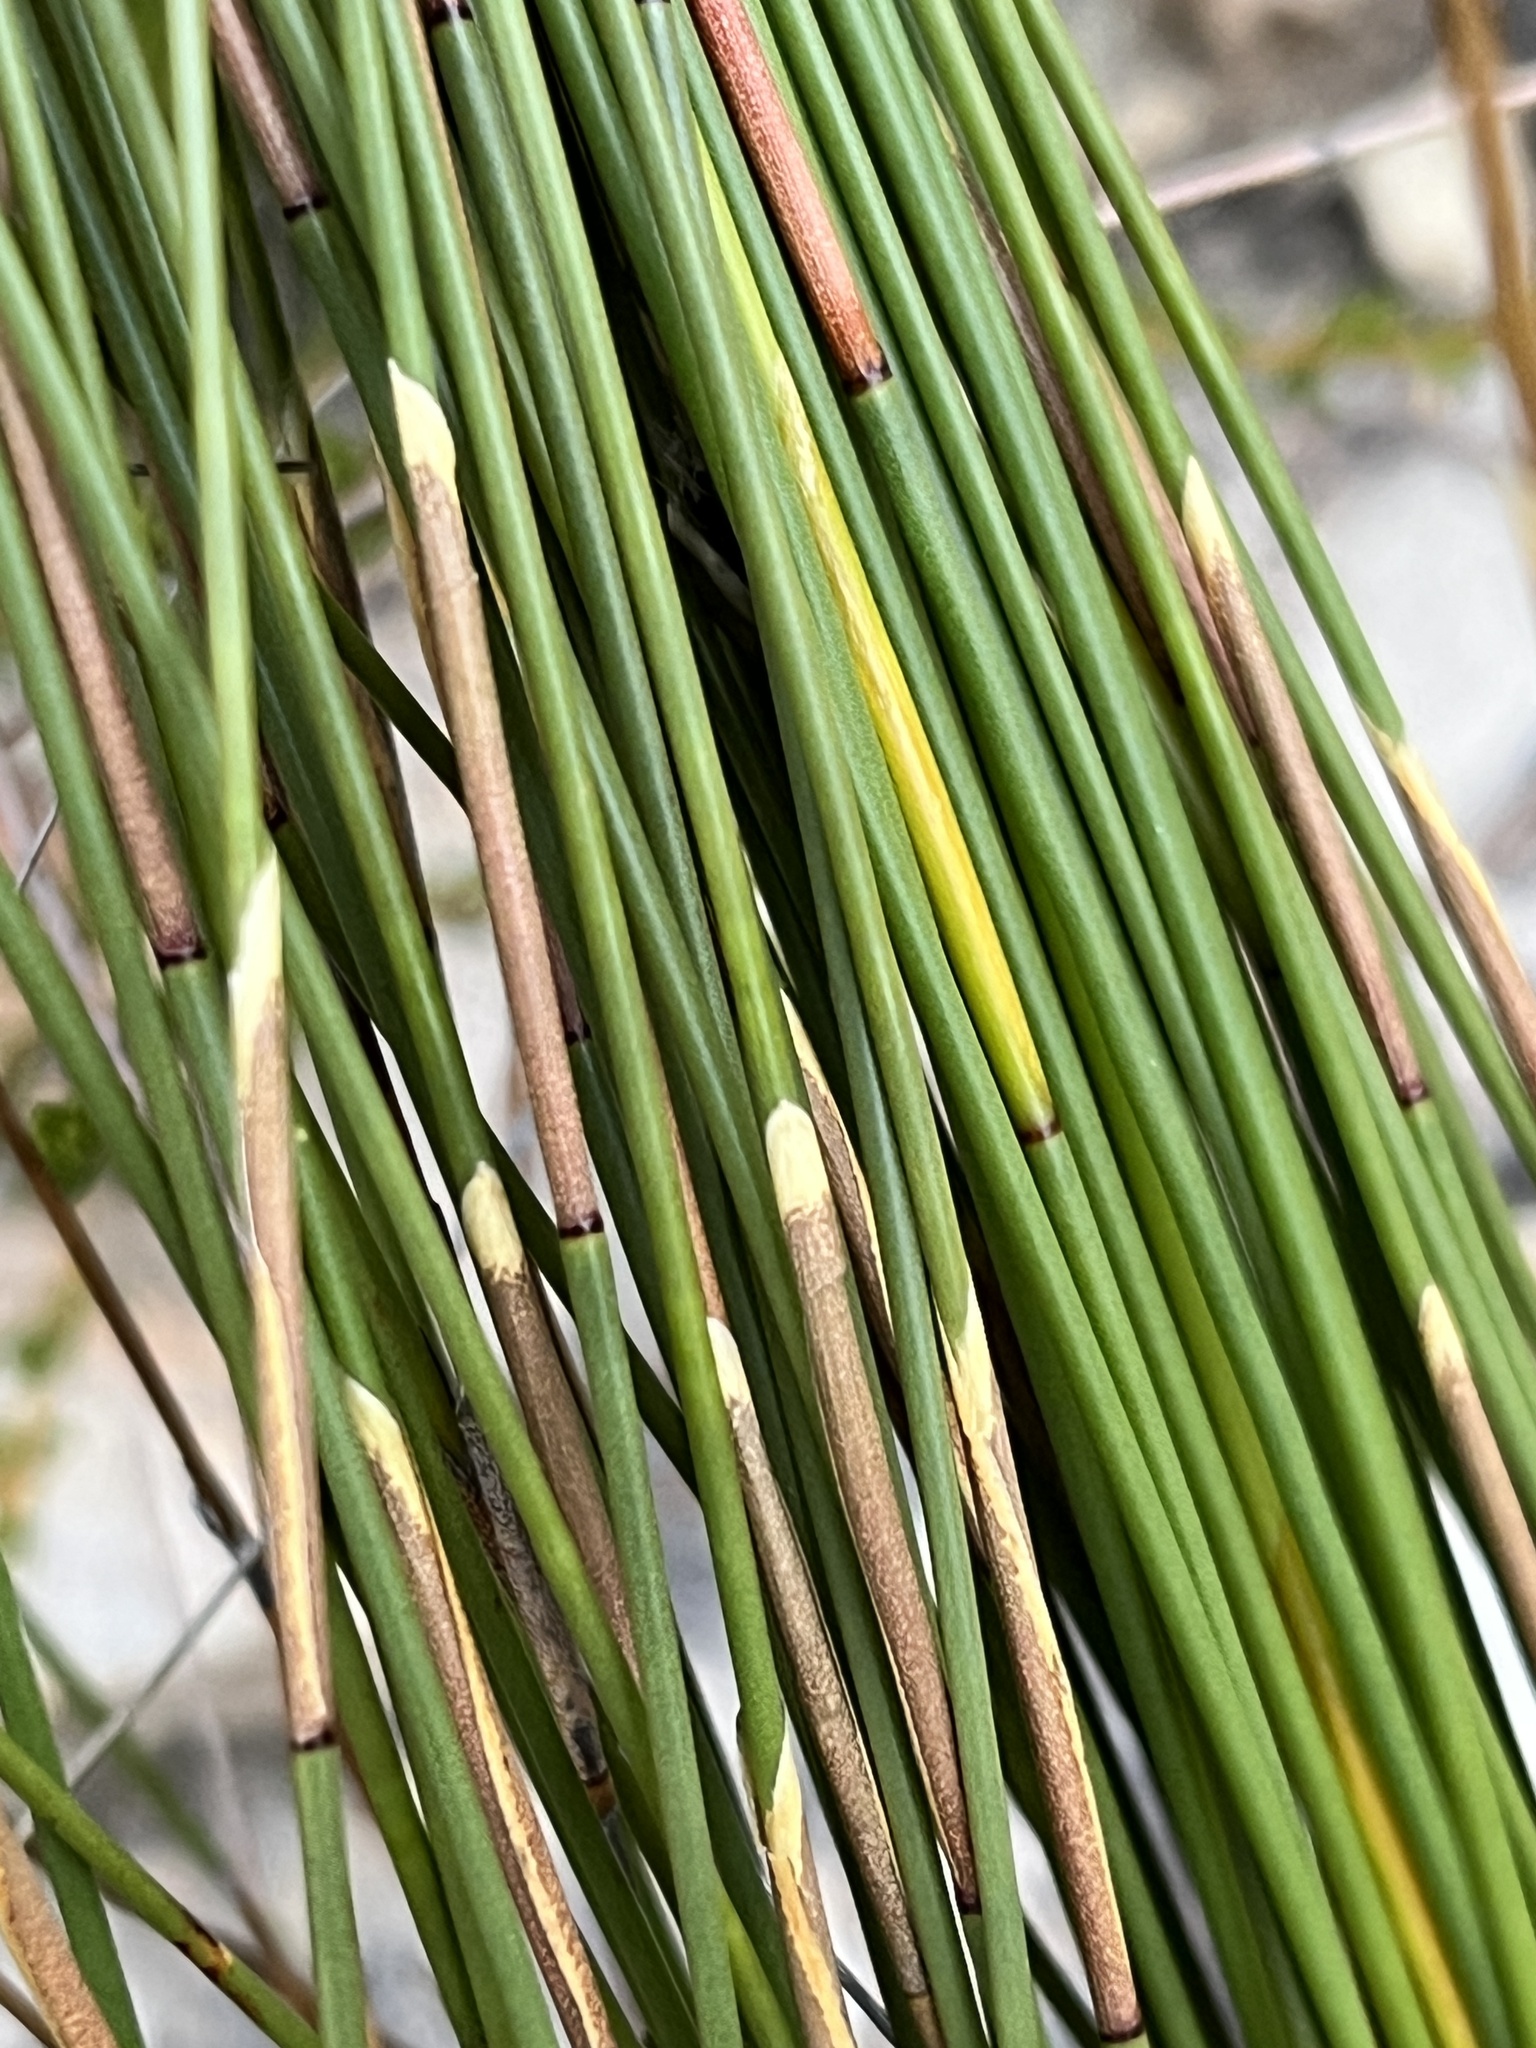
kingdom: Plantae
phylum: Tracheophyta
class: Liliopsida
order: Poales
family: Restionaceae
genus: Hypodiscus
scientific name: Hypodiscus synchroolepis
